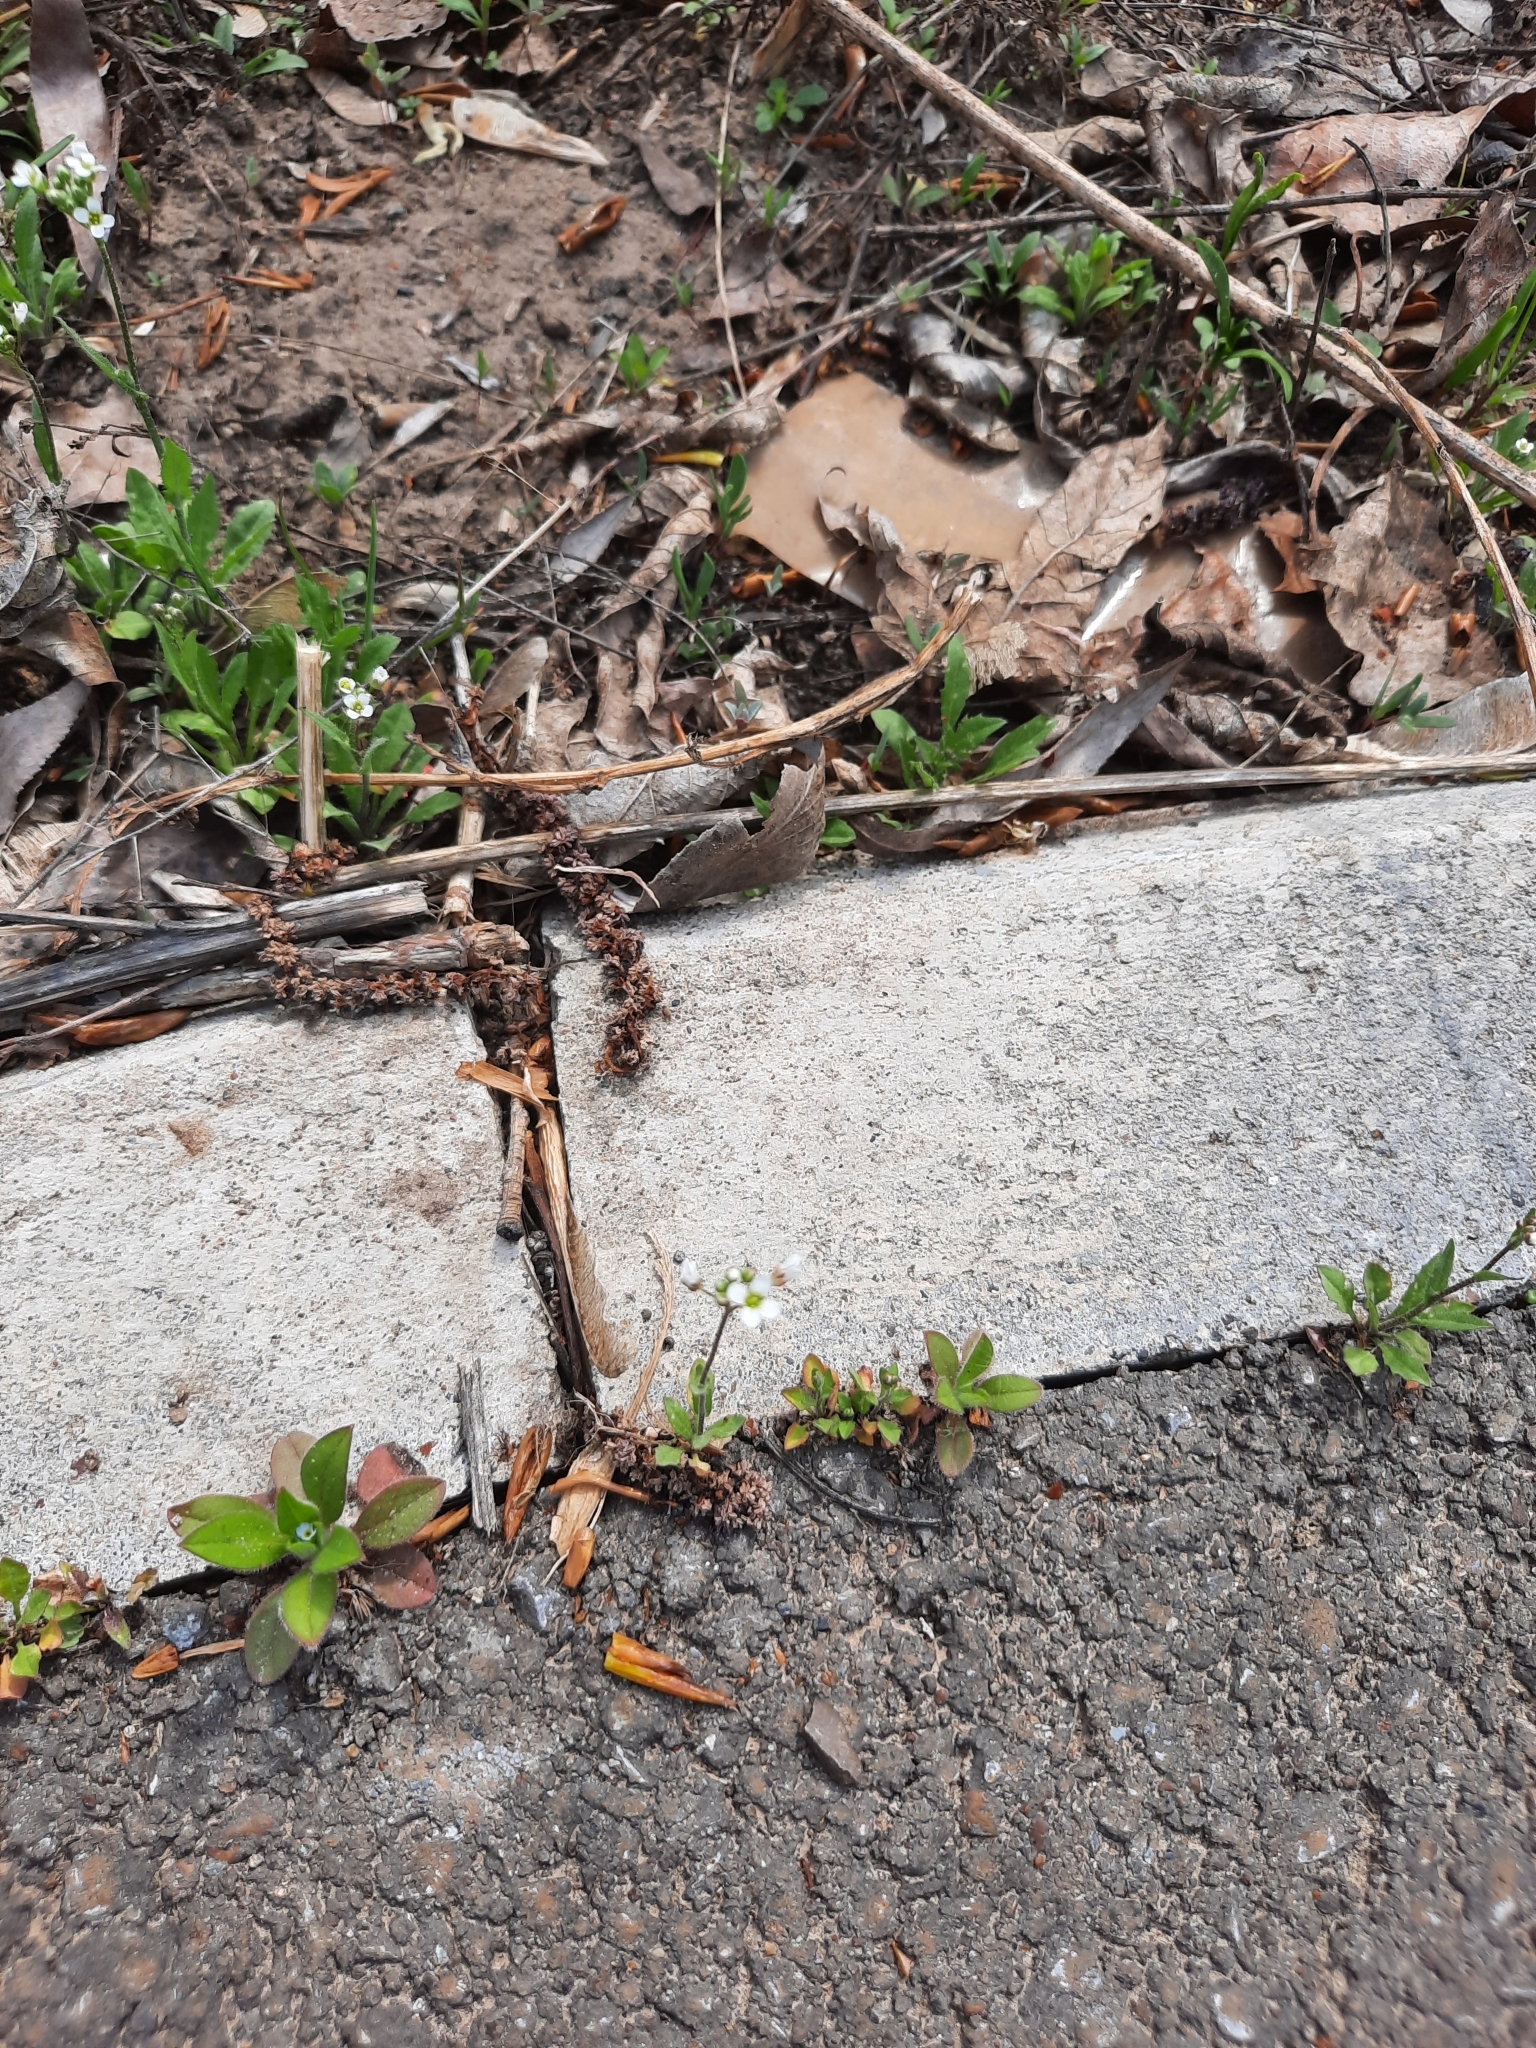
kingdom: Plantae
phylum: Tracheophyta
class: Magnoliopsida
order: Brassicales
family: Brassicaceae
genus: Capsella
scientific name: Capsella bursa-pastoris
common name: Shepherd's purse
